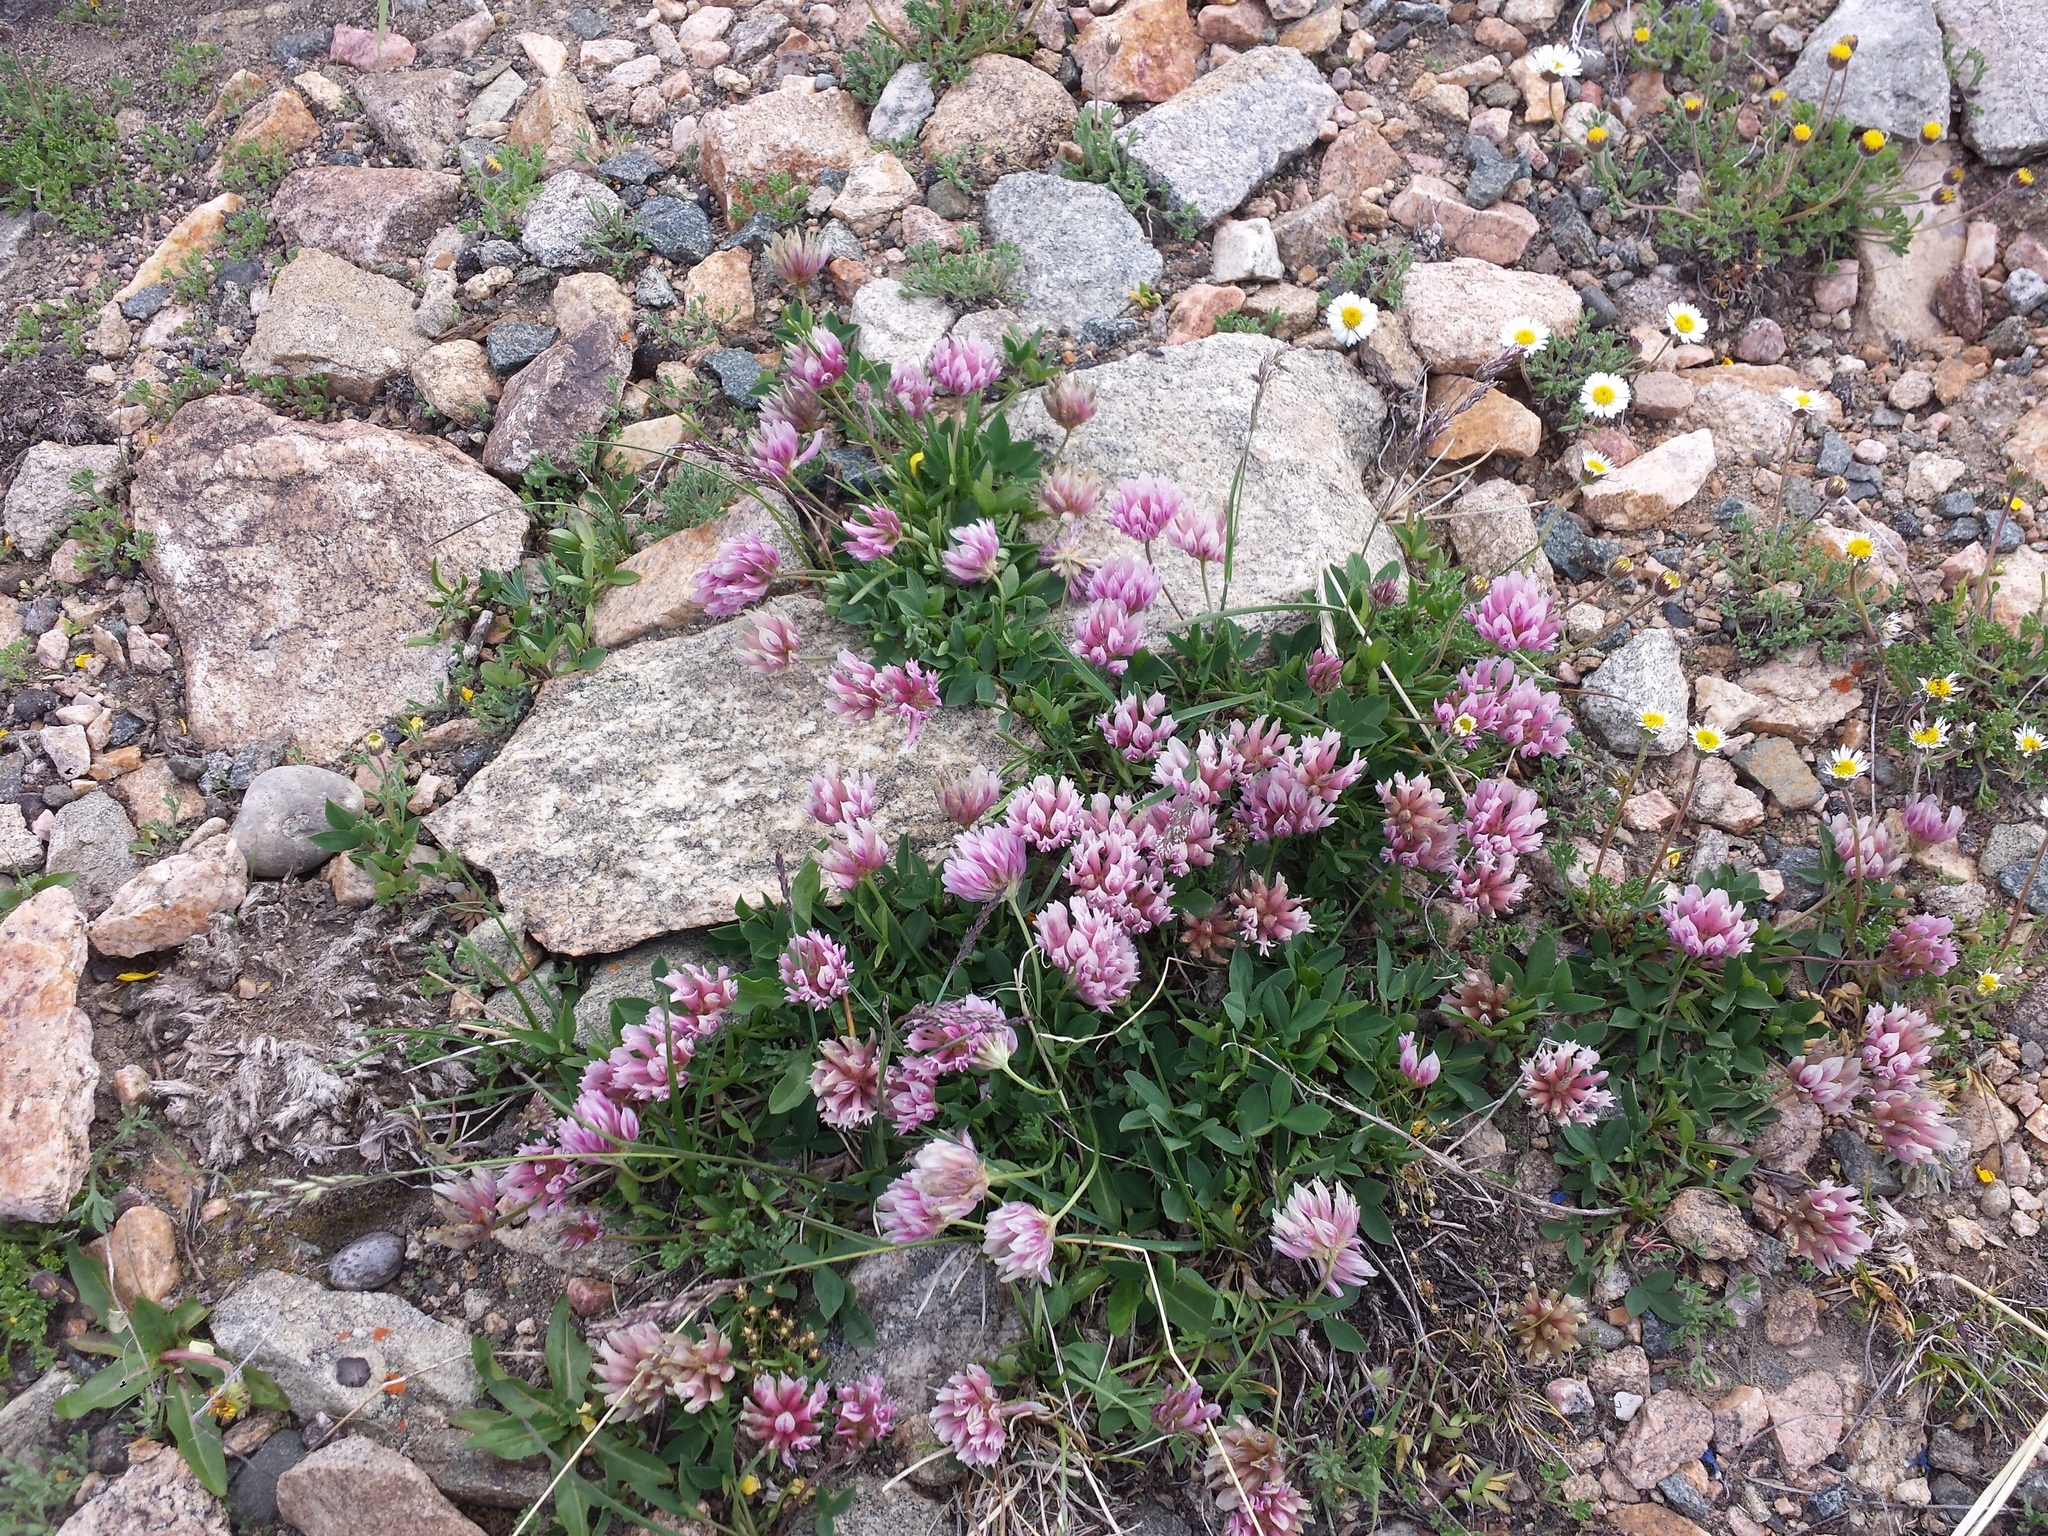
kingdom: Plantae
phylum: Tracheophyta
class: Magnoliopsida
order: Fabales
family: Fabaceae
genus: Trifolium
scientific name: Trifolium parryi
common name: Parry's clover
